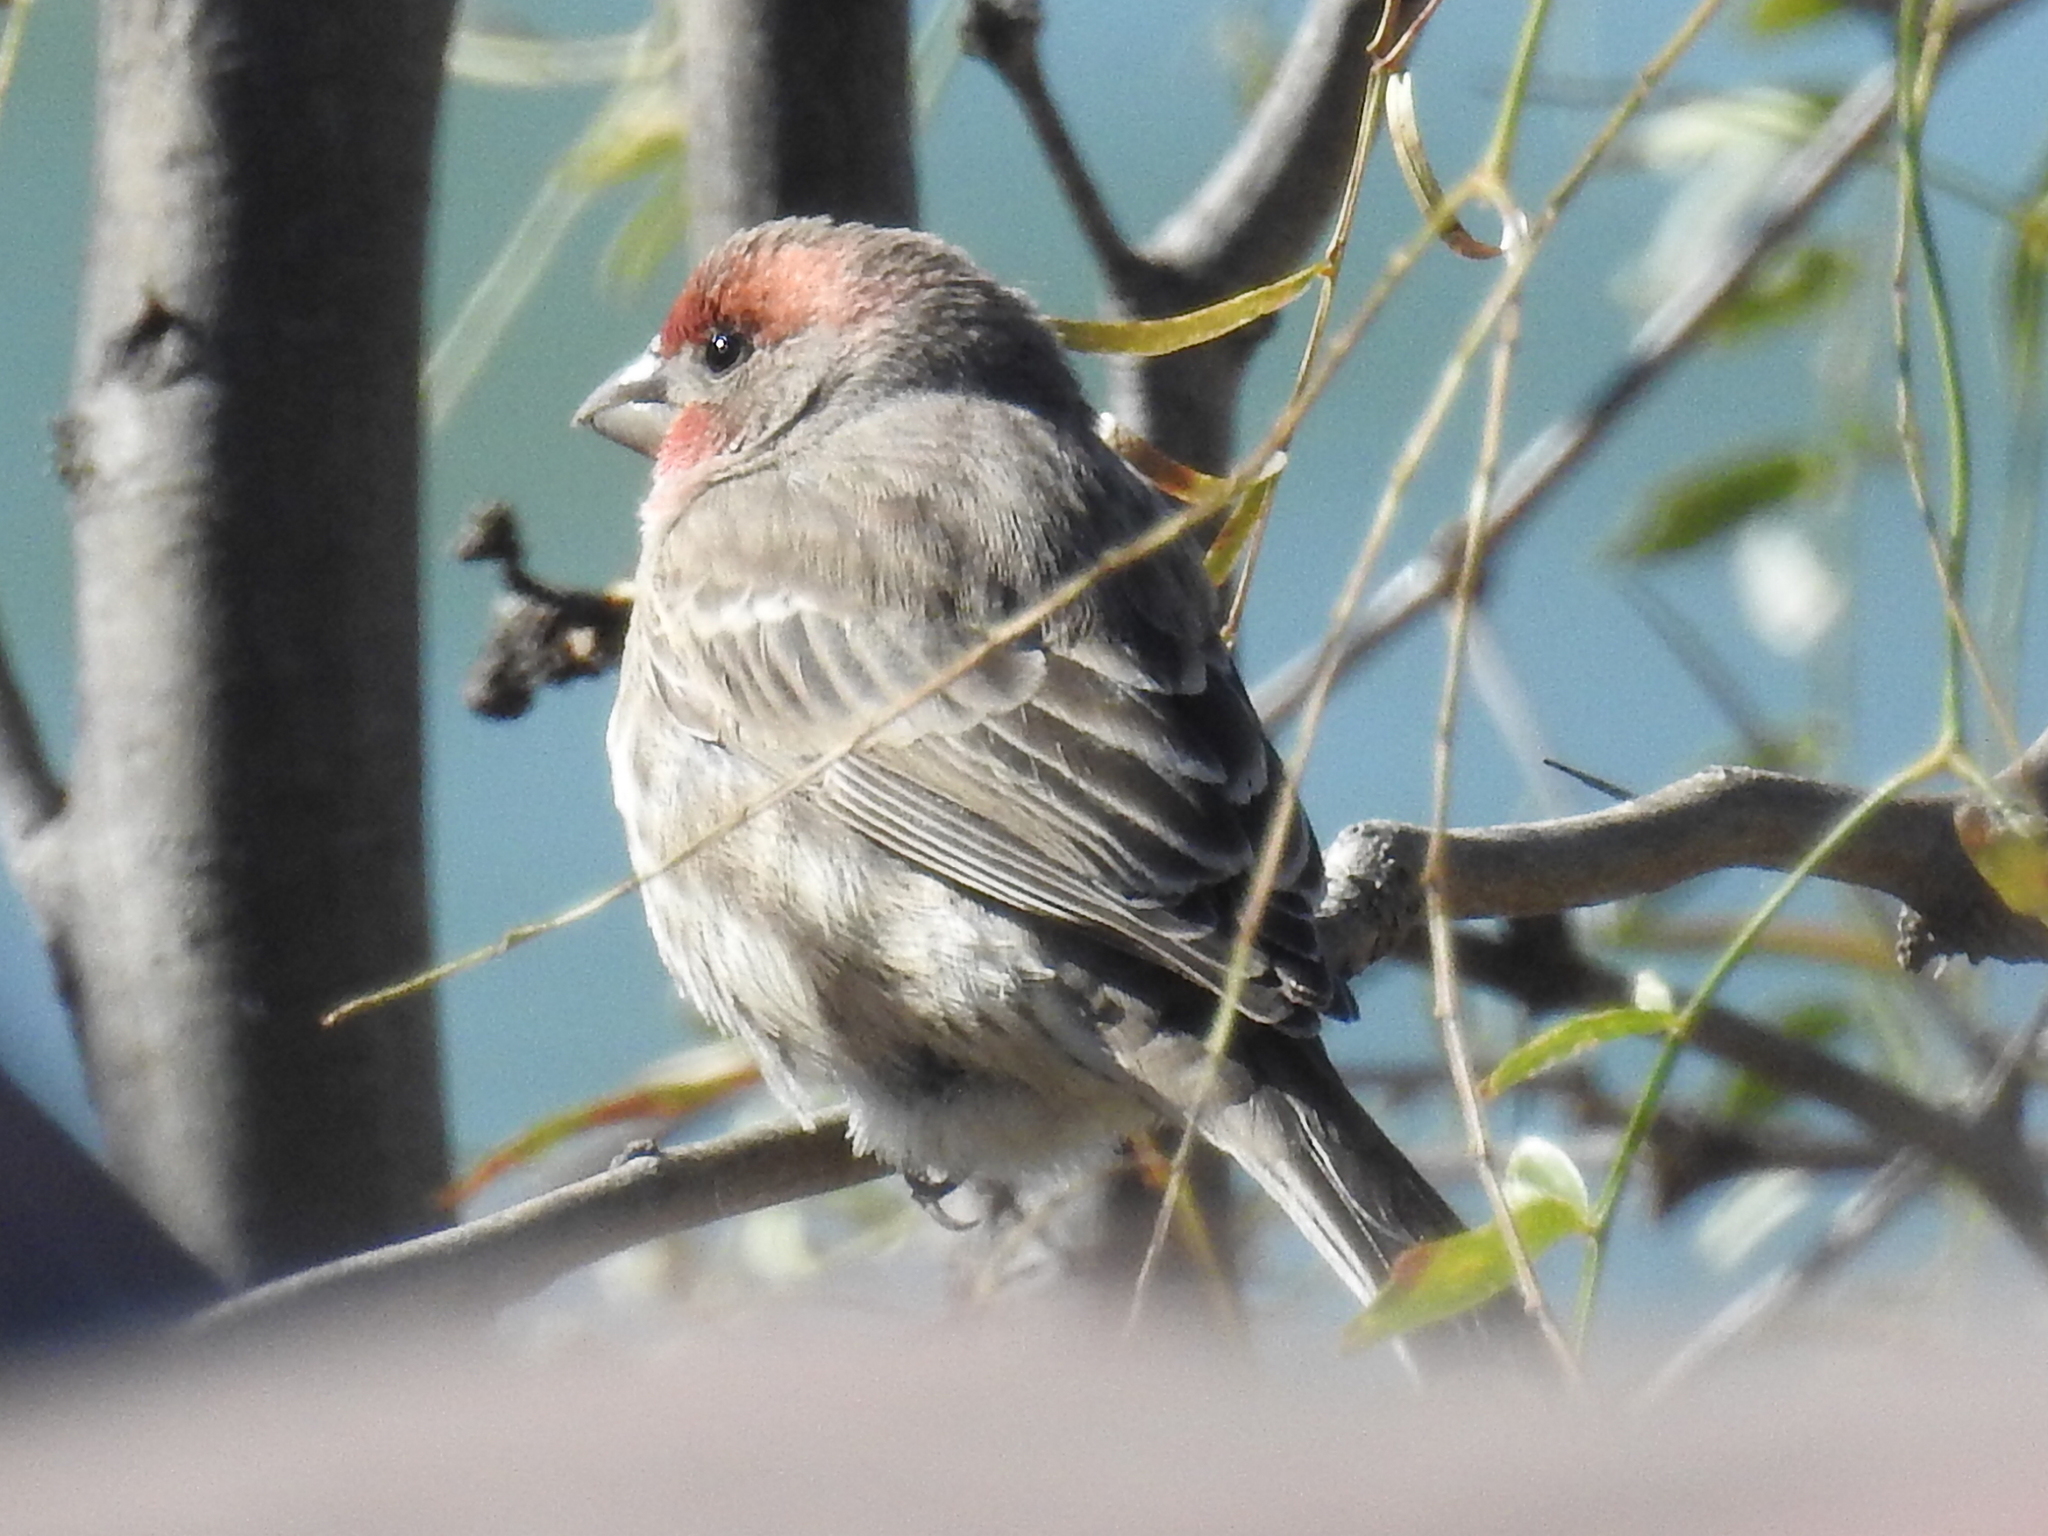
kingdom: Animalia
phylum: Chordata
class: Aves
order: Passeriformes
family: Fringillidae
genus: Haemorhous
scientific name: Haemorhous mexicanus
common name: House finch
